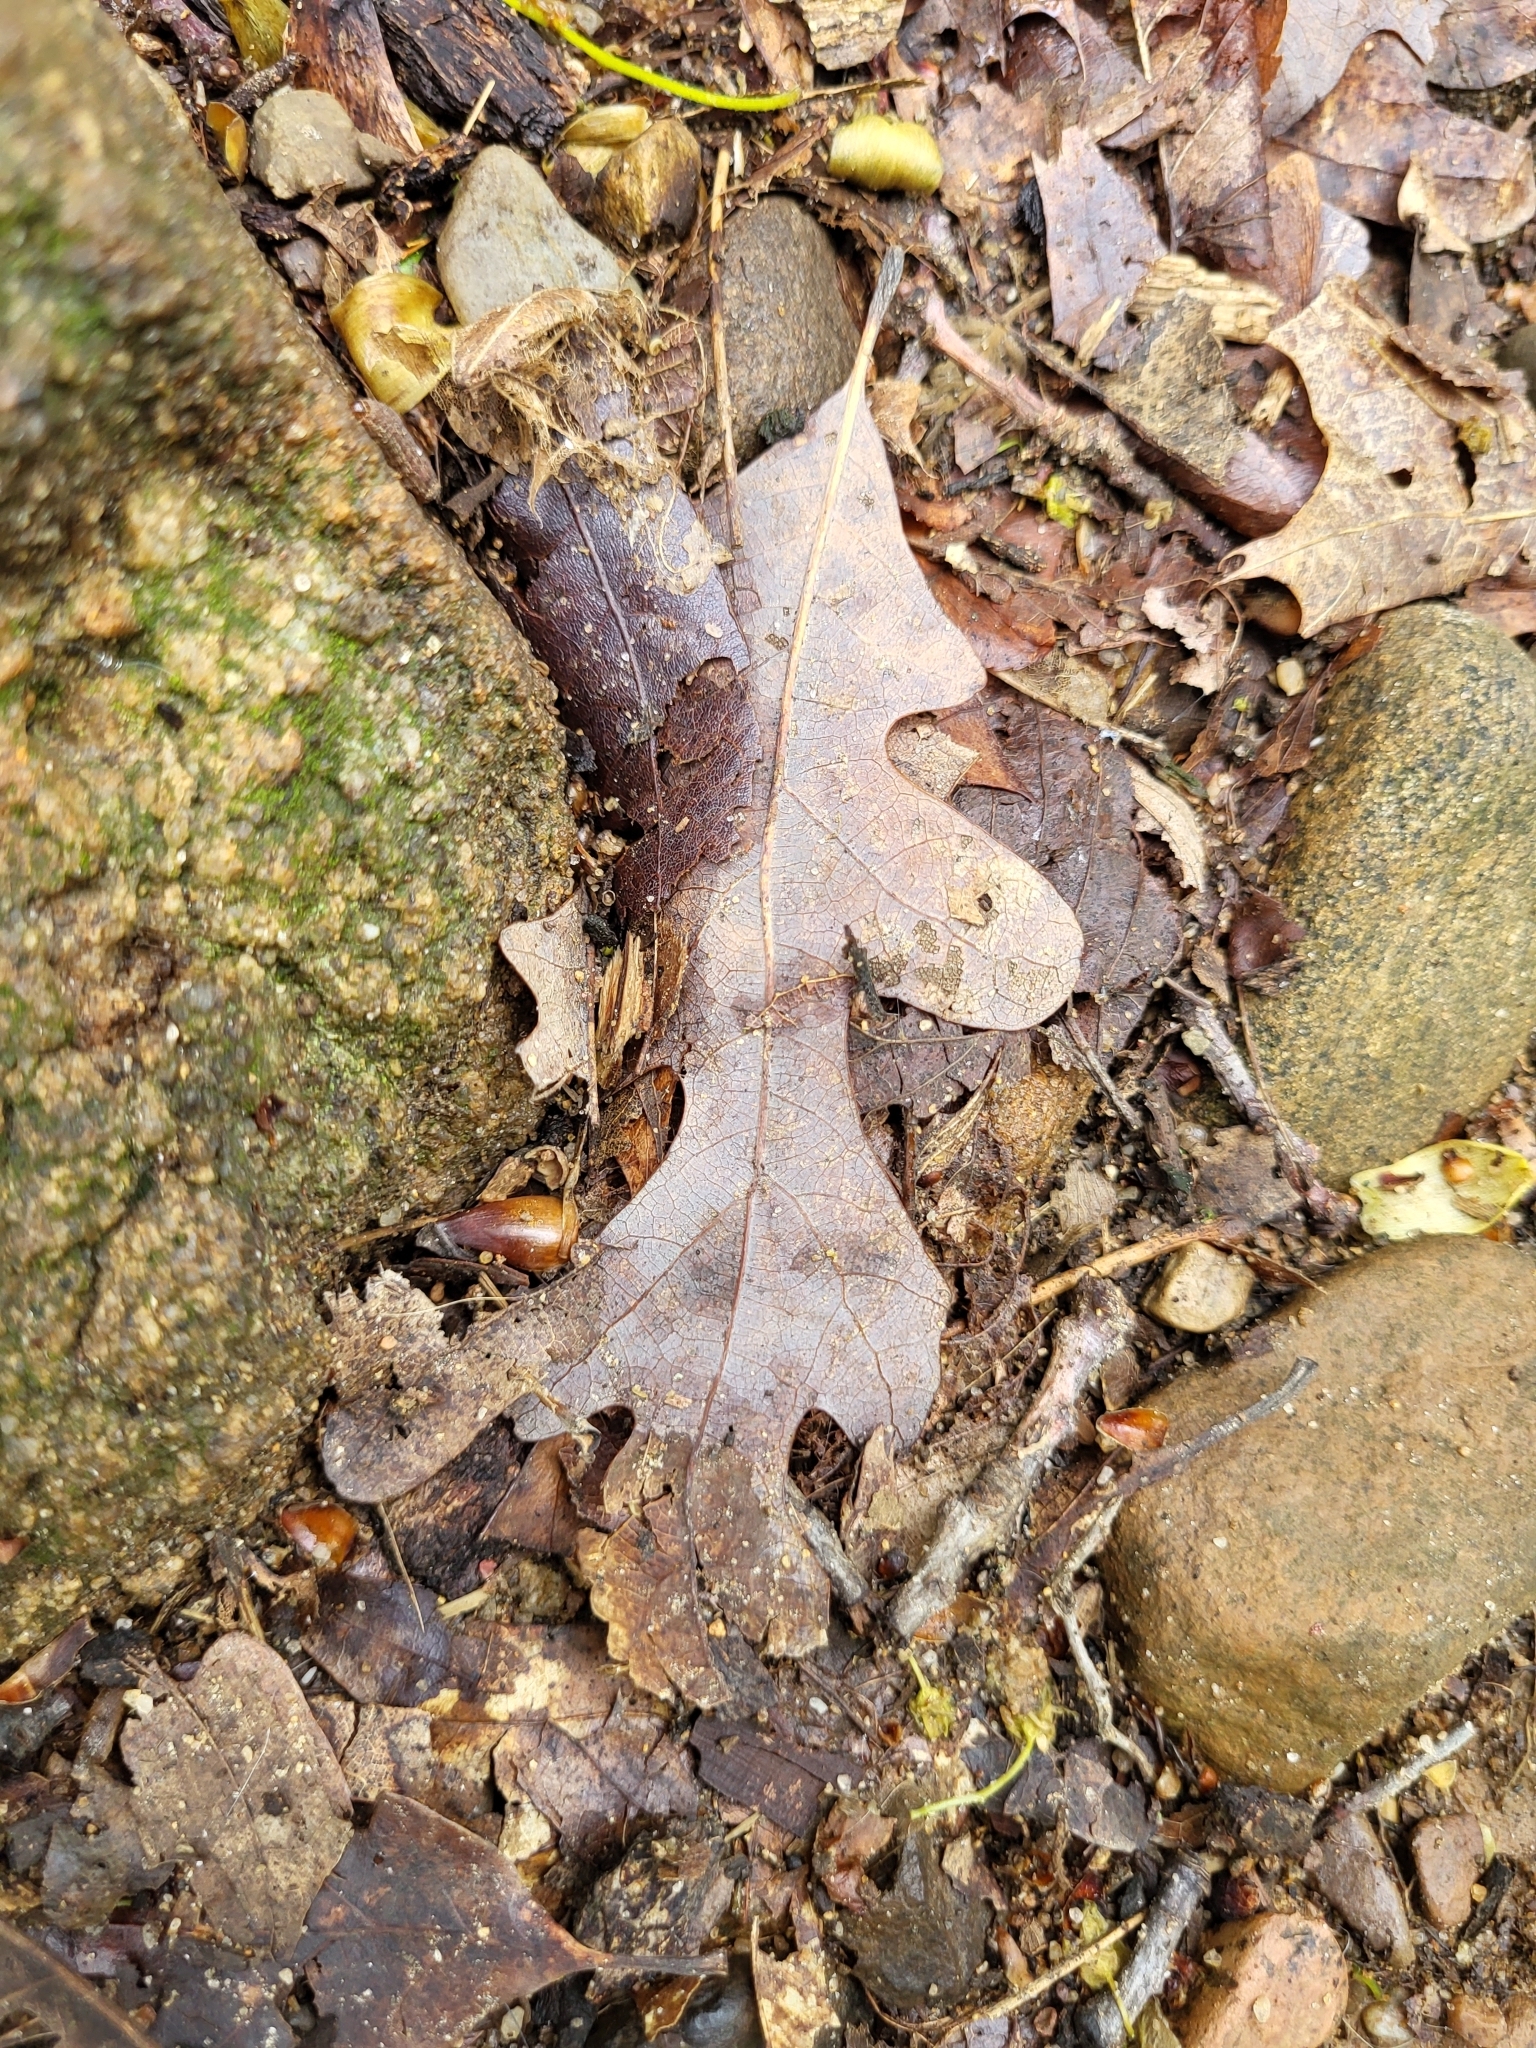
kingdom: Plantae
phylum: Tracheophyta
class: Magnoliopsida
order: Fagales
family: Fagaceae
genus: Quercus
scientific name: Quercus alba
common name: White oak
